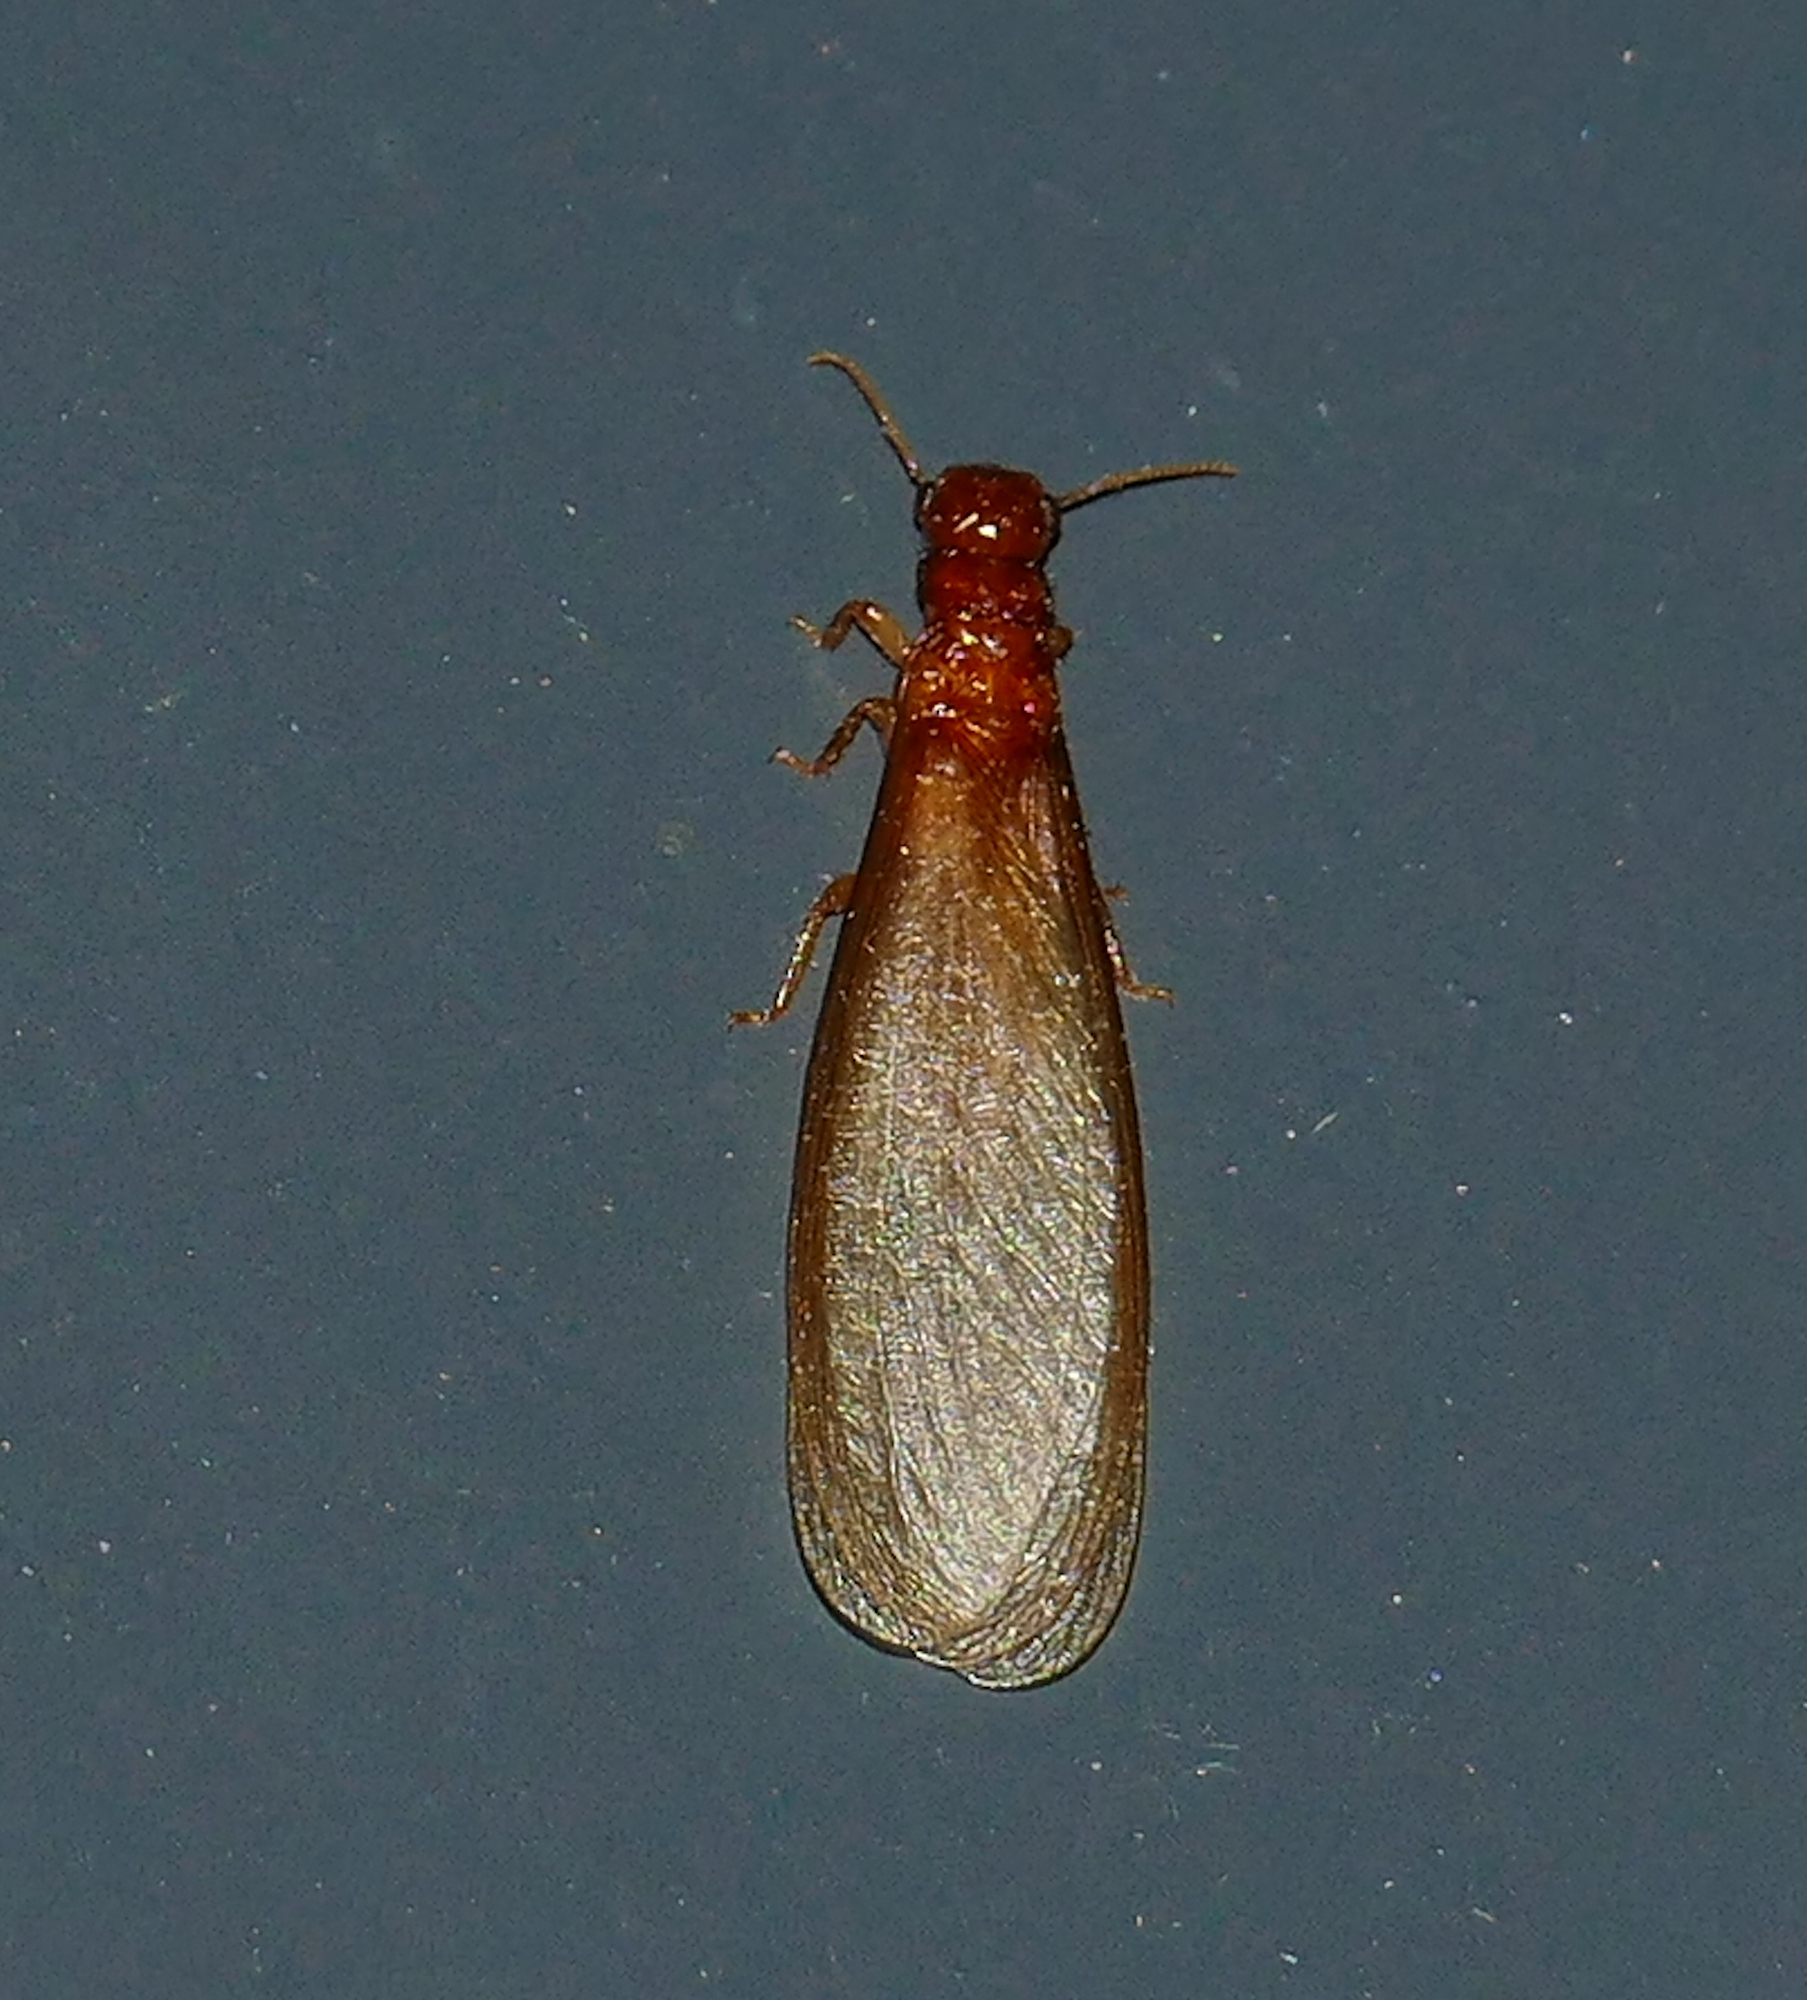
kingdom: Animalia
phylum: Arthropoda
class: Insecta
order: Blattodea
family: Kalotermitidae
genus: Pterotermes
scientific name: Pterotermes occidentis
